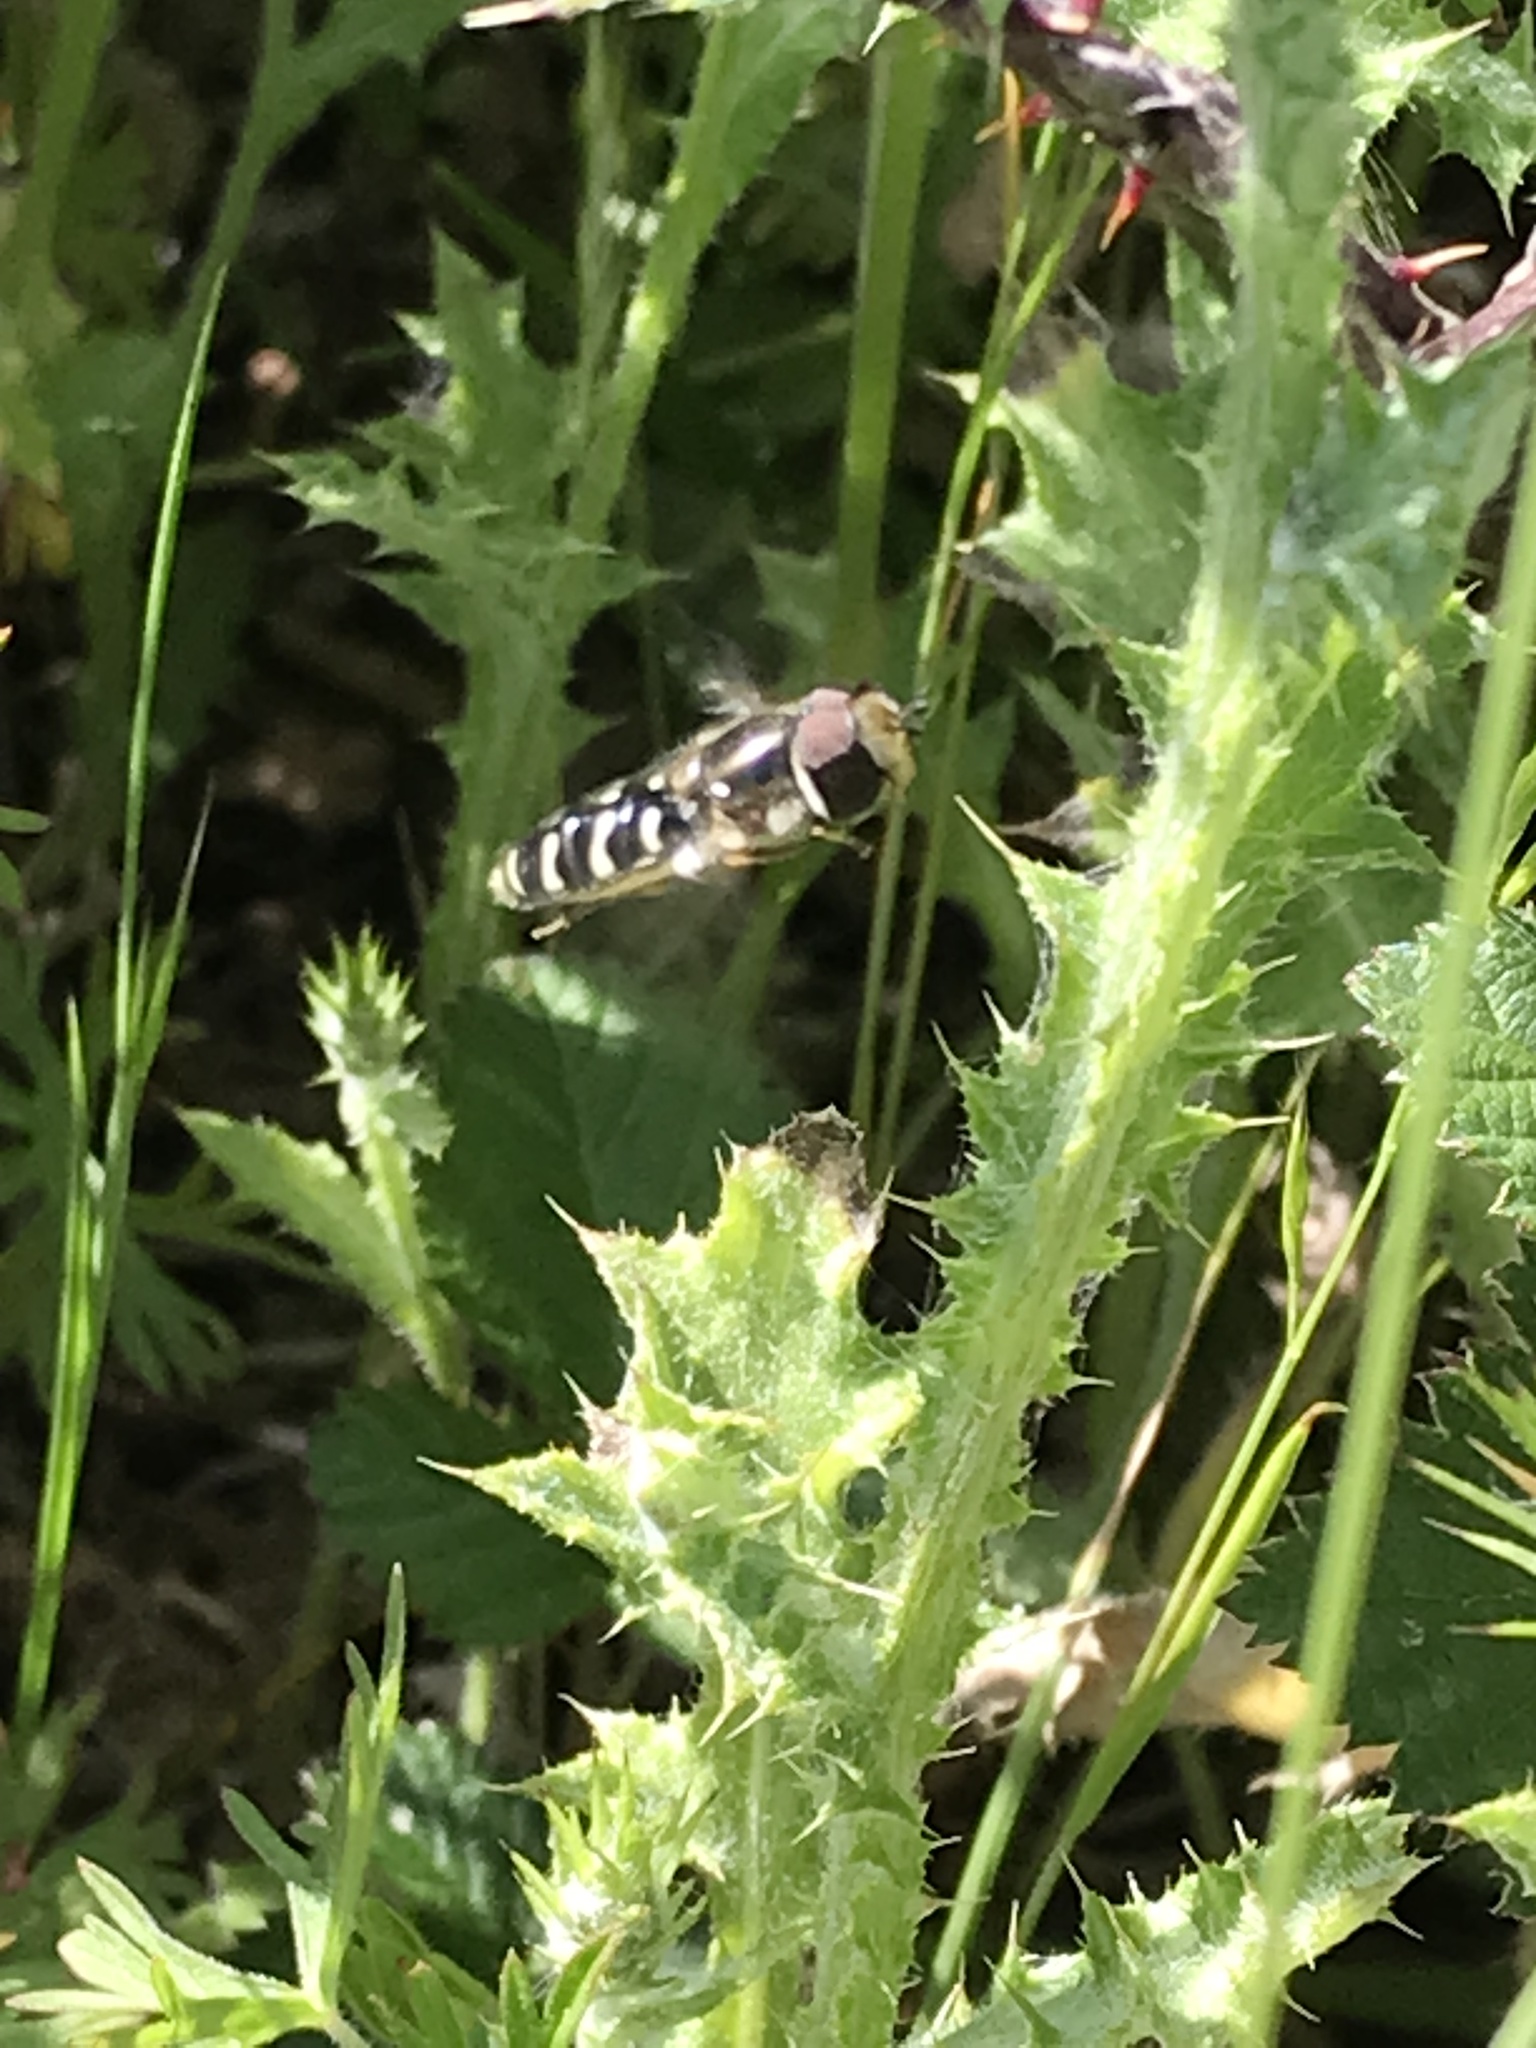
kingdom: Animalia
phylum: Arthropoda
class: Insecta
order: Diptera
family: Syrphidae
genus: Scaeva
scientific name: Scaeva affinis
